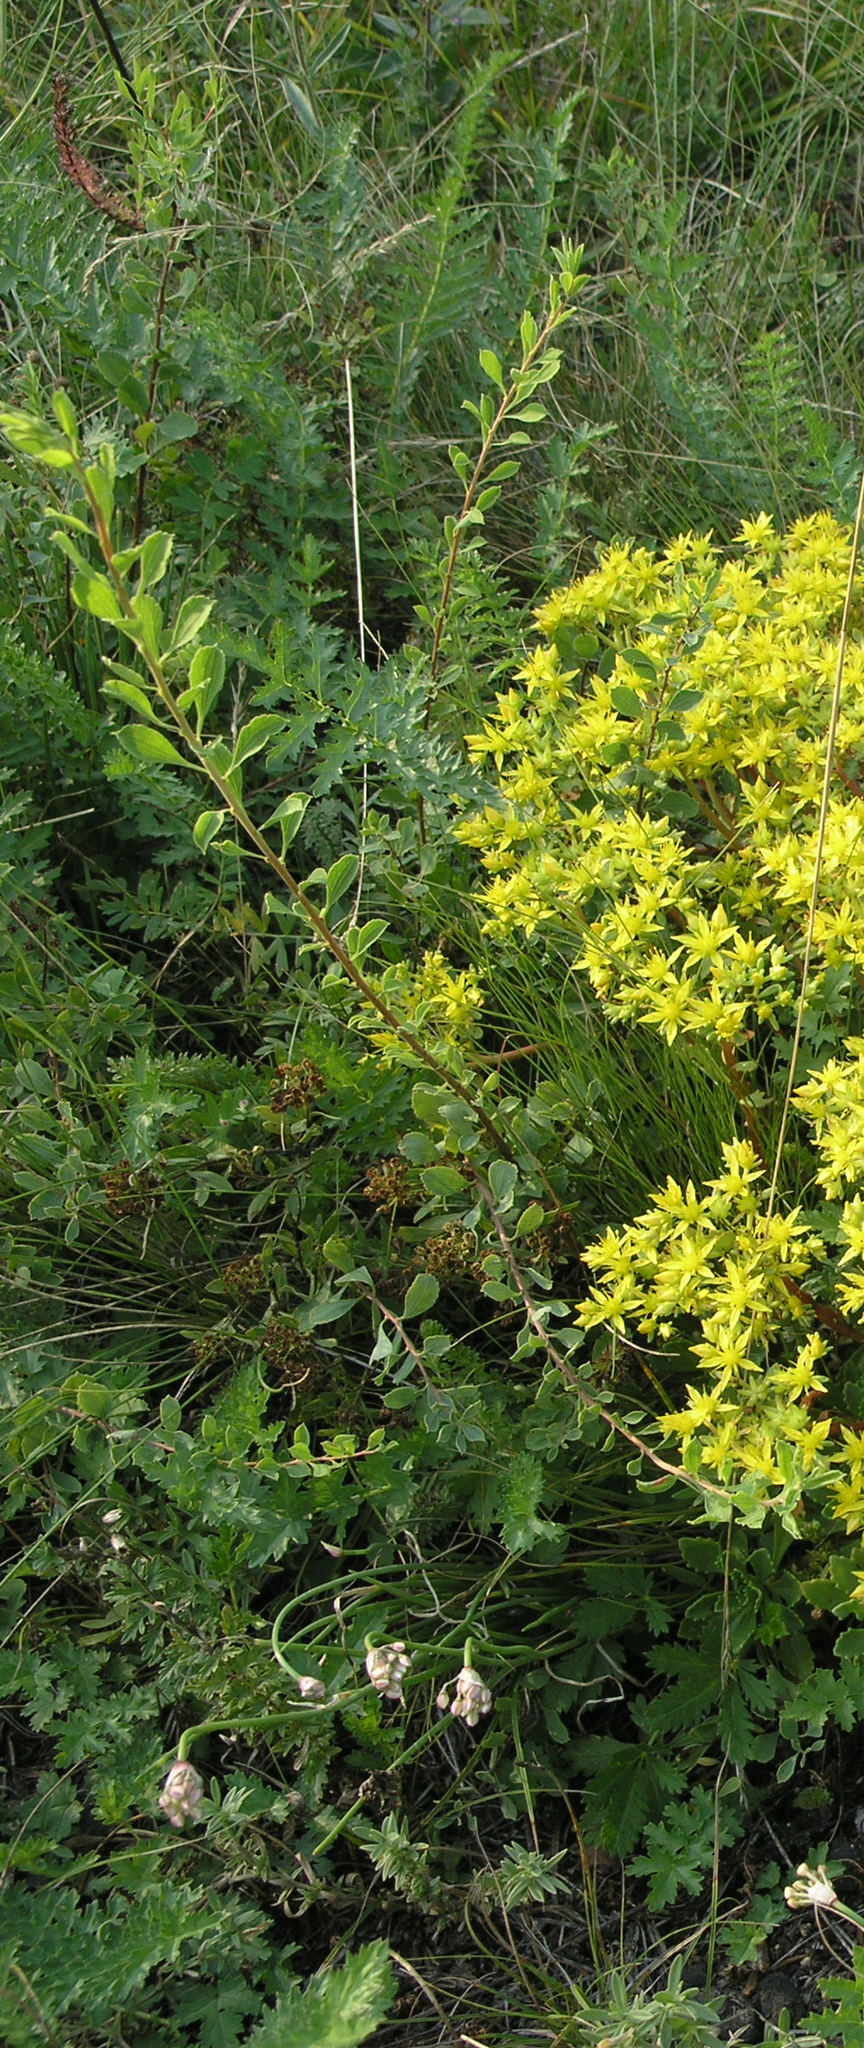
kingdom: Plantae
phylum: Tracheophyta
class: Magnoliopsida
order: Rosales
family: Rosaceae
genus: Spiraea
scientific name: Spiraea crenata
